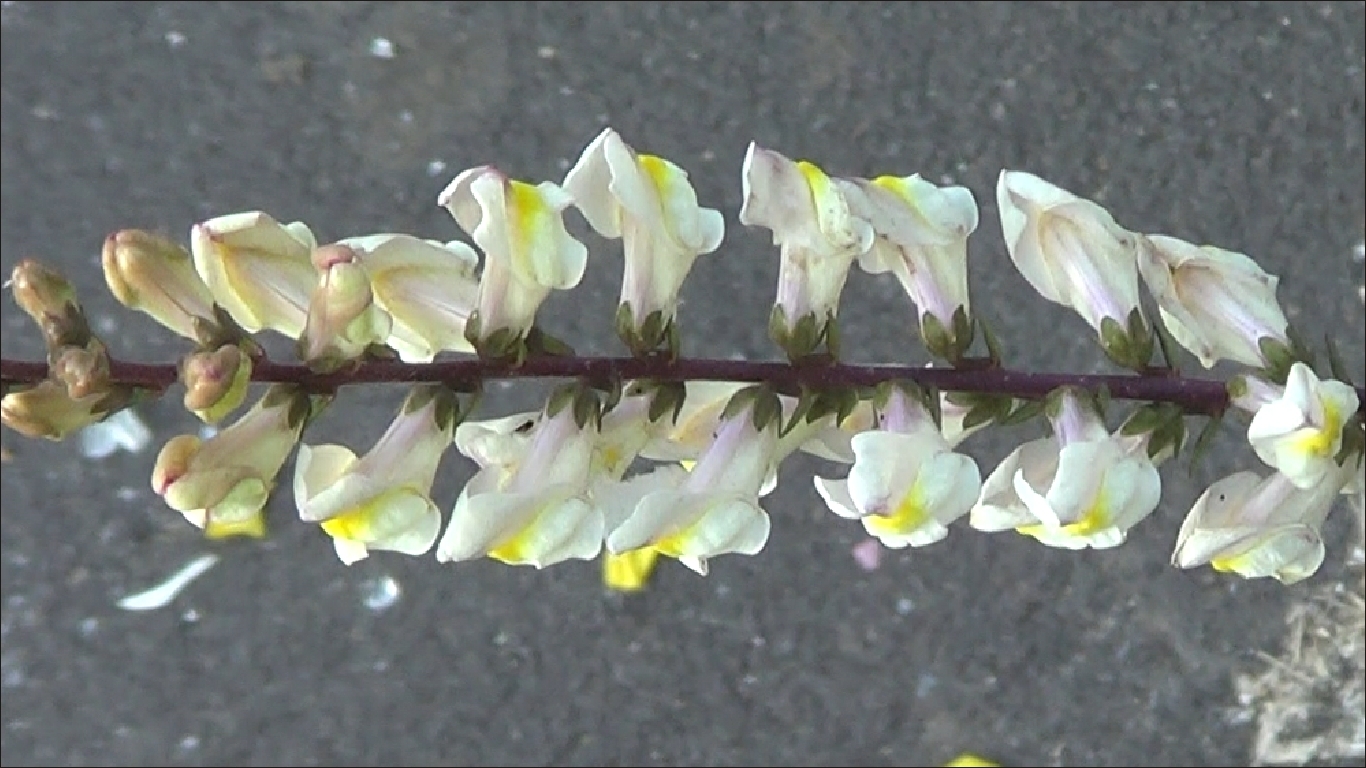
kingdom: Plantae
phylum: Tracheophyta
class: Magnoliopsida
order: Lamiales
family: Plantaginaceae
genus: Antirrhinum
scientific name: Antirrhinum siculum
